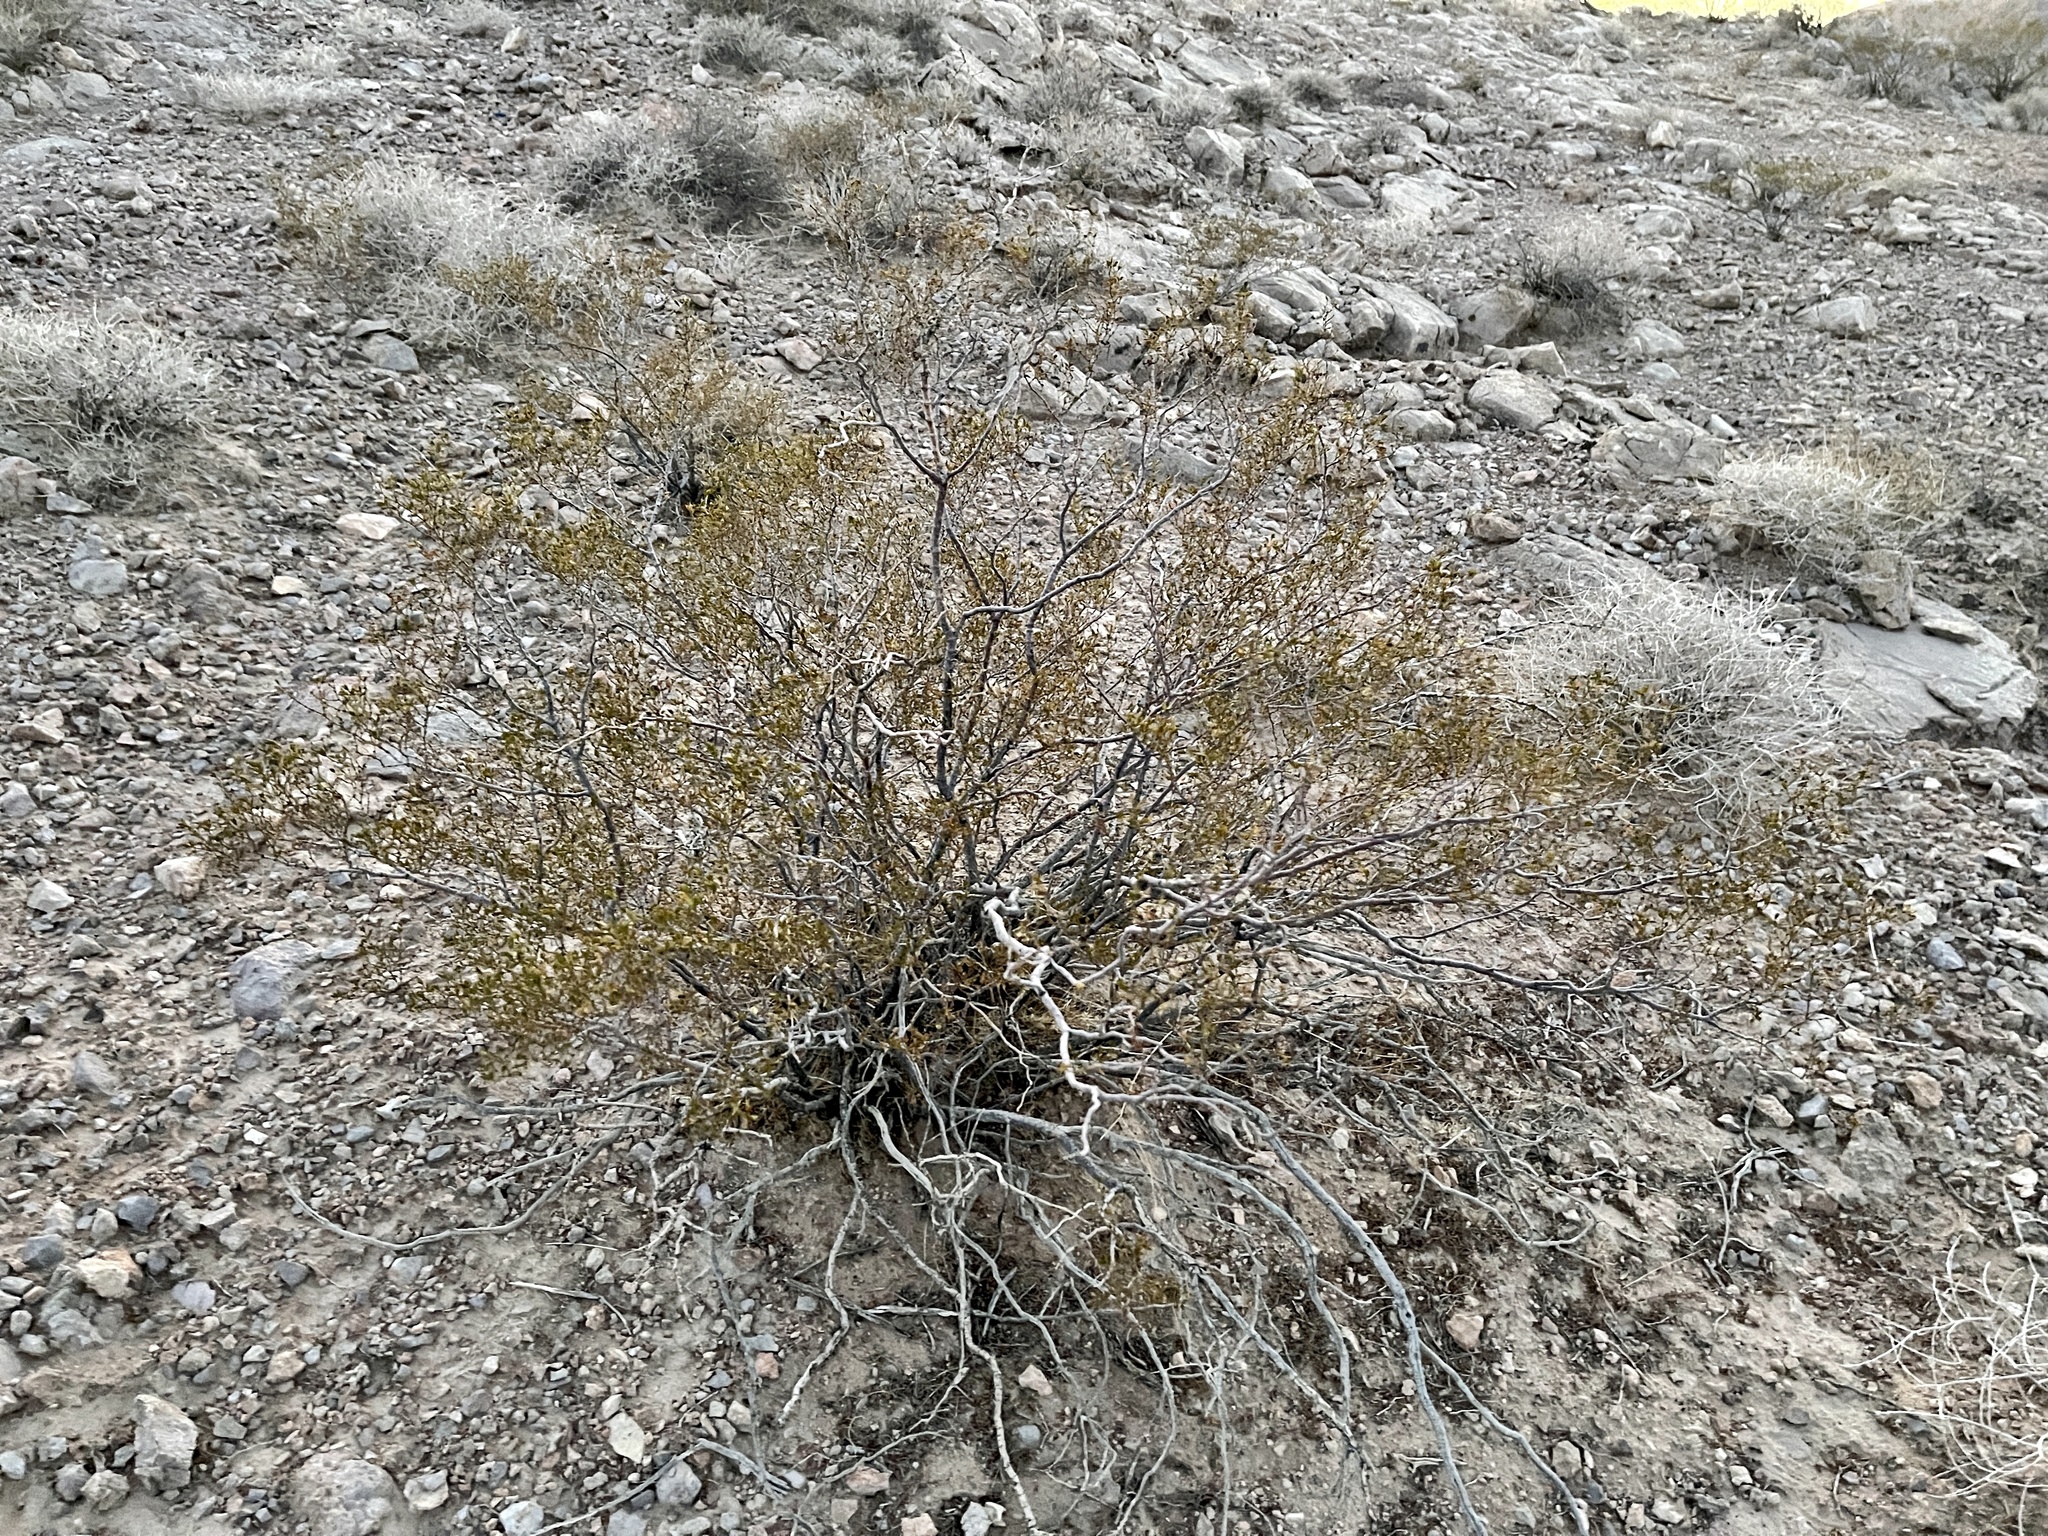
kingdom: Plantae
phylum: Tracheophyta
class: Magnoliopsida
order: Zygophyllales
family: Zygophyllaceae
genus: Larrea
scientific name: Larrea tridentata
